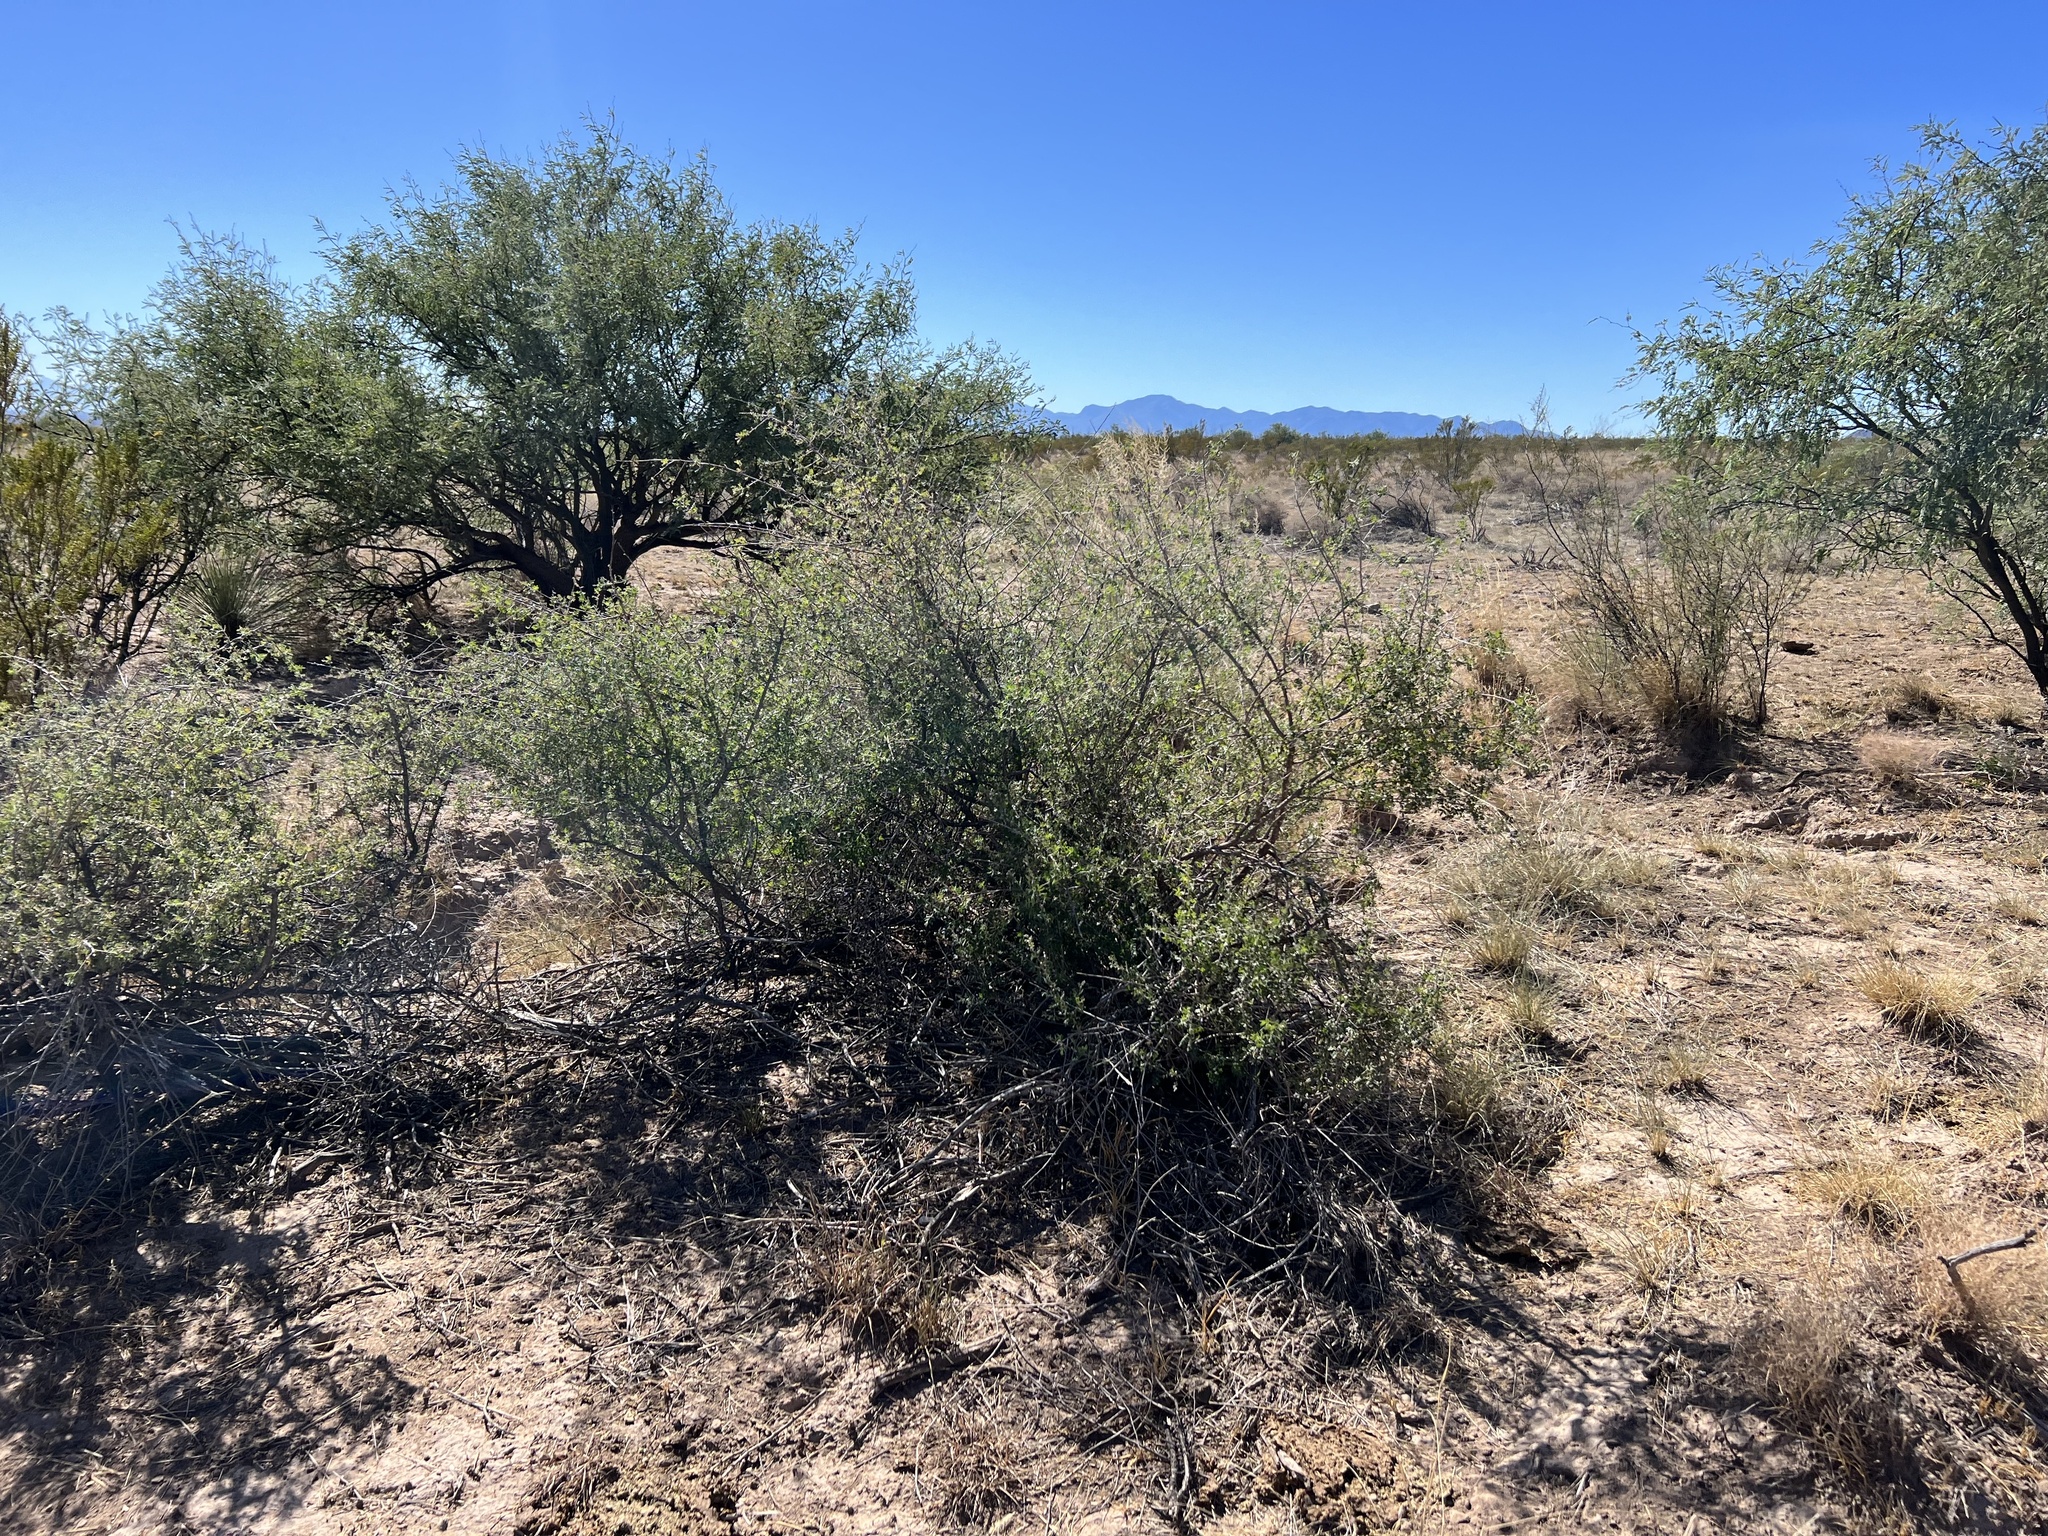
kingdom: Plantae
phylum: Tracheophyta
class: Magnoliopsida
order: Sapindales
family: Anacardiaceae
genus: Rhus
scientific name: Rhus microphylla
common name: Desert sumac
